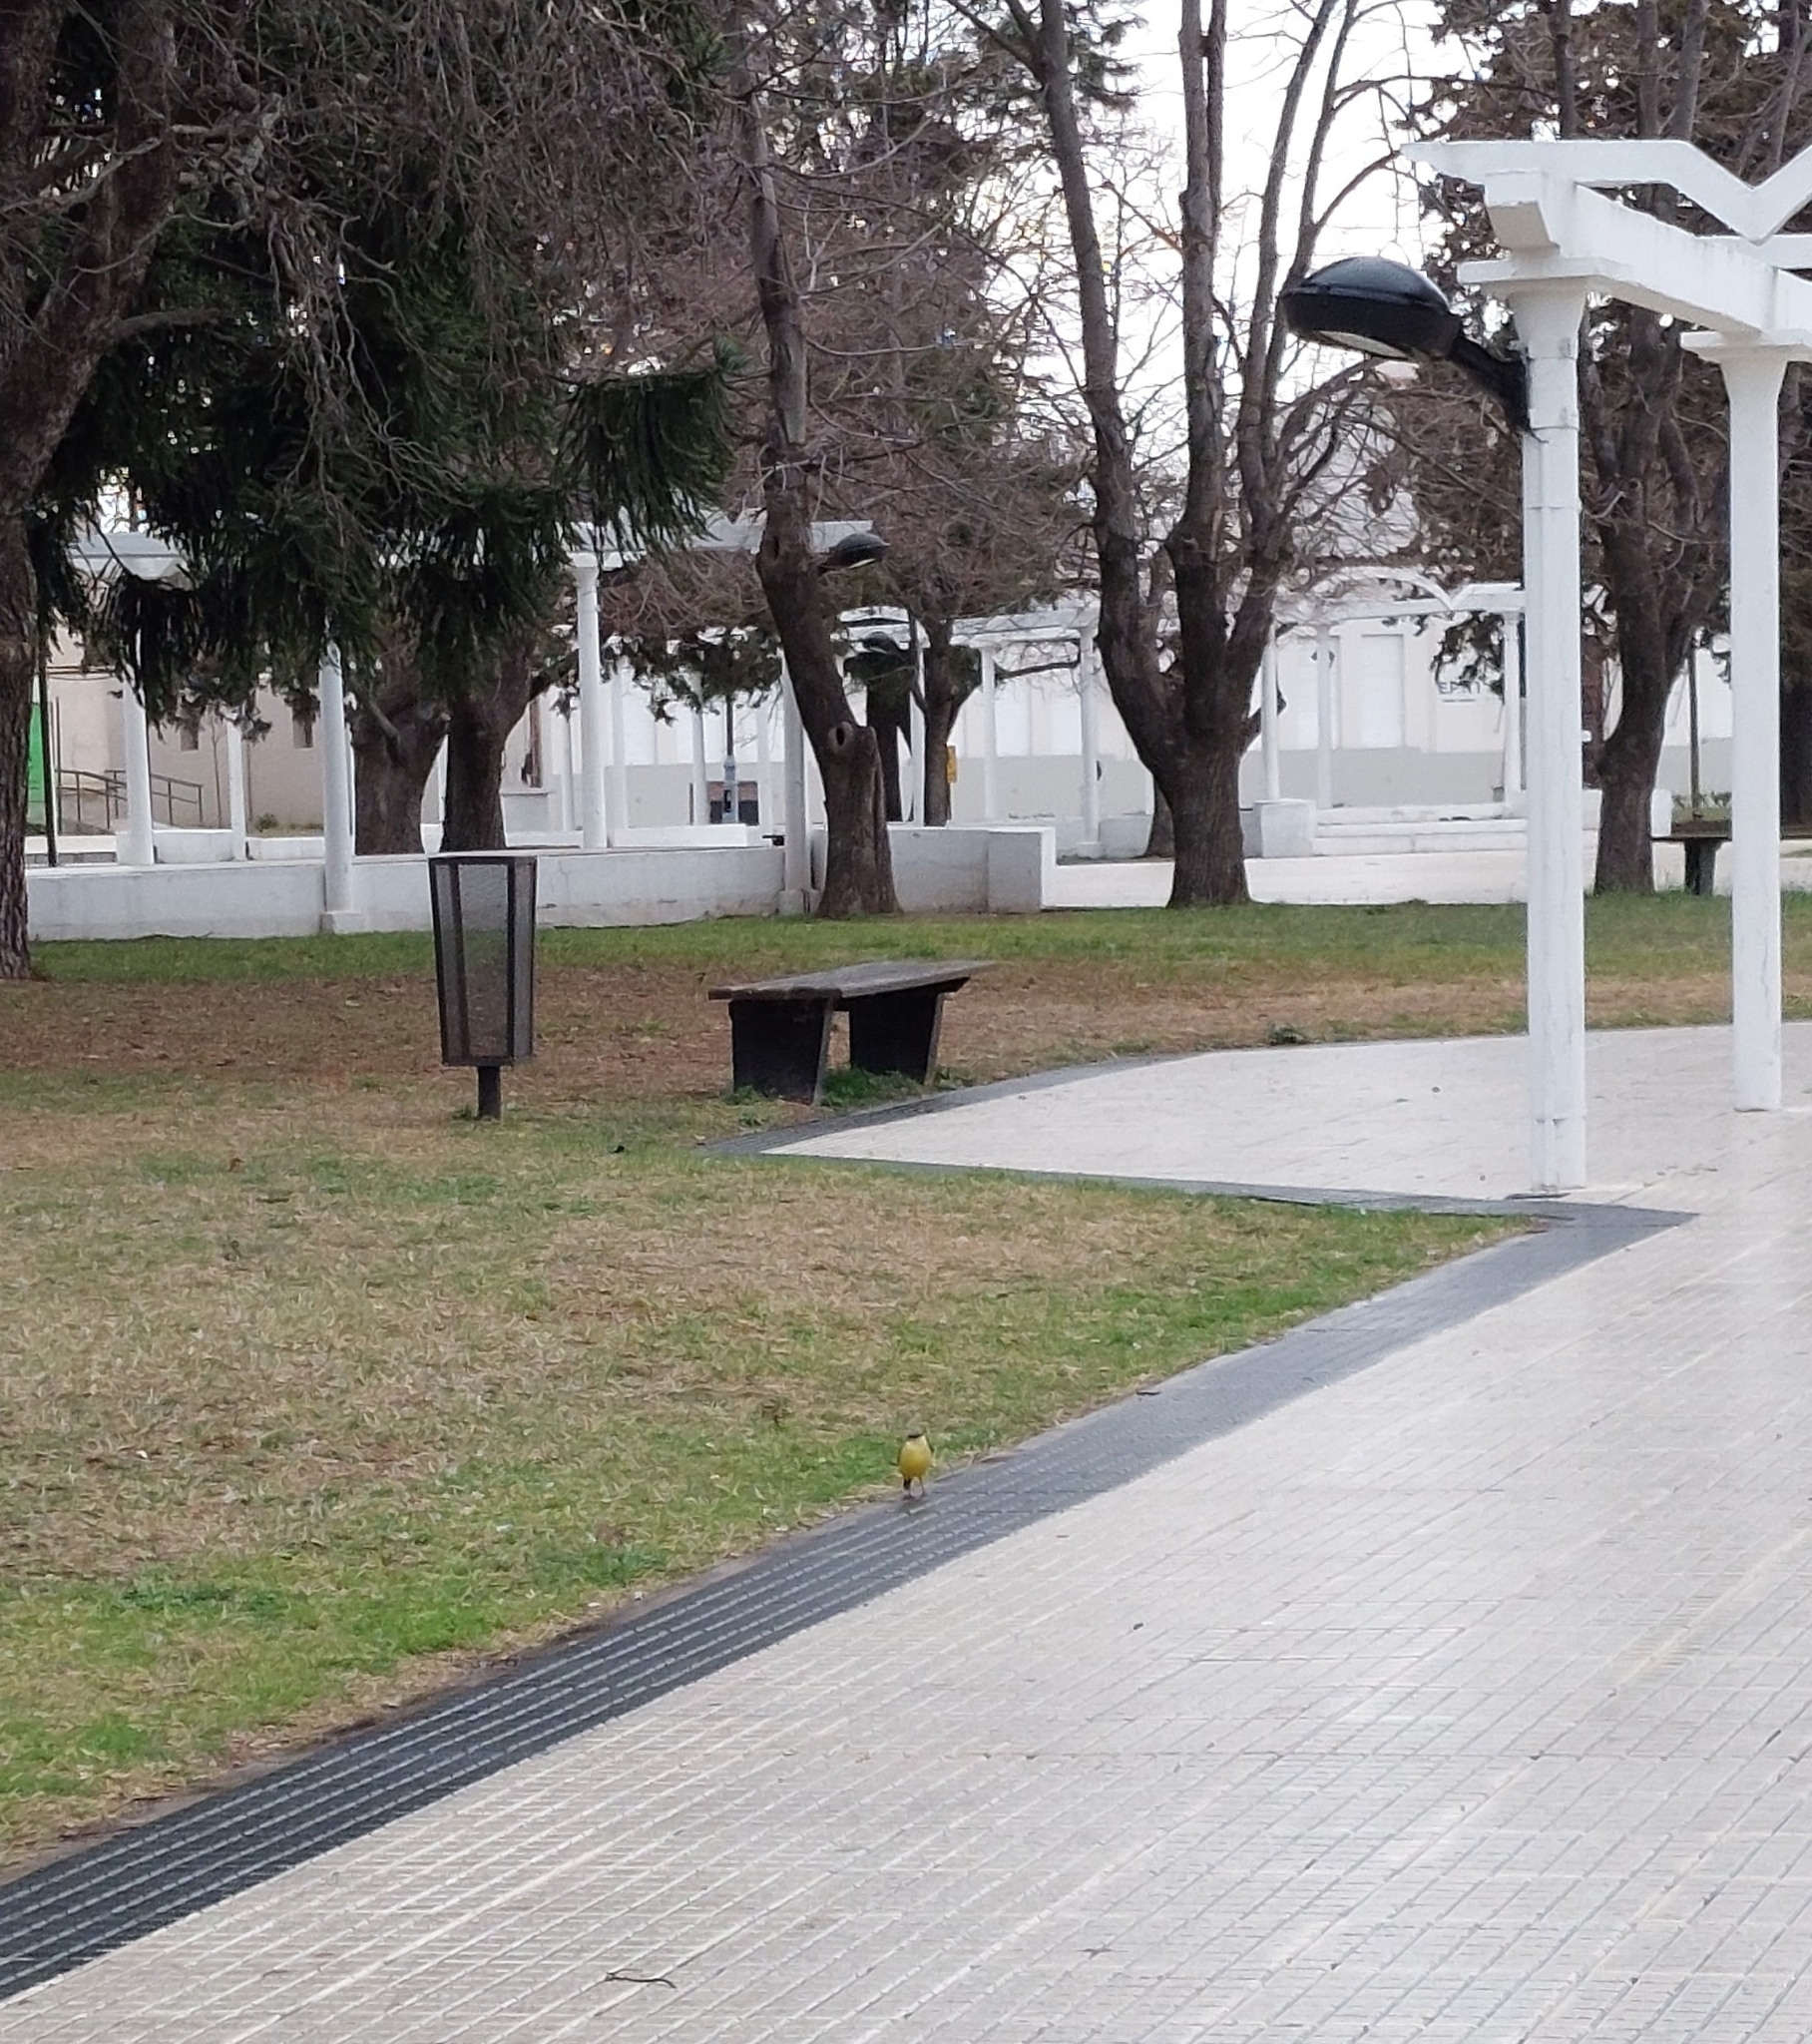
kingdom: Animalia
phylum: Chordata
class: Aves
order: Passeriformes
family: Tyrannidae
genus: Machetornis
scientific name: Machetornis rixosa
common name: Cattle tyrant
